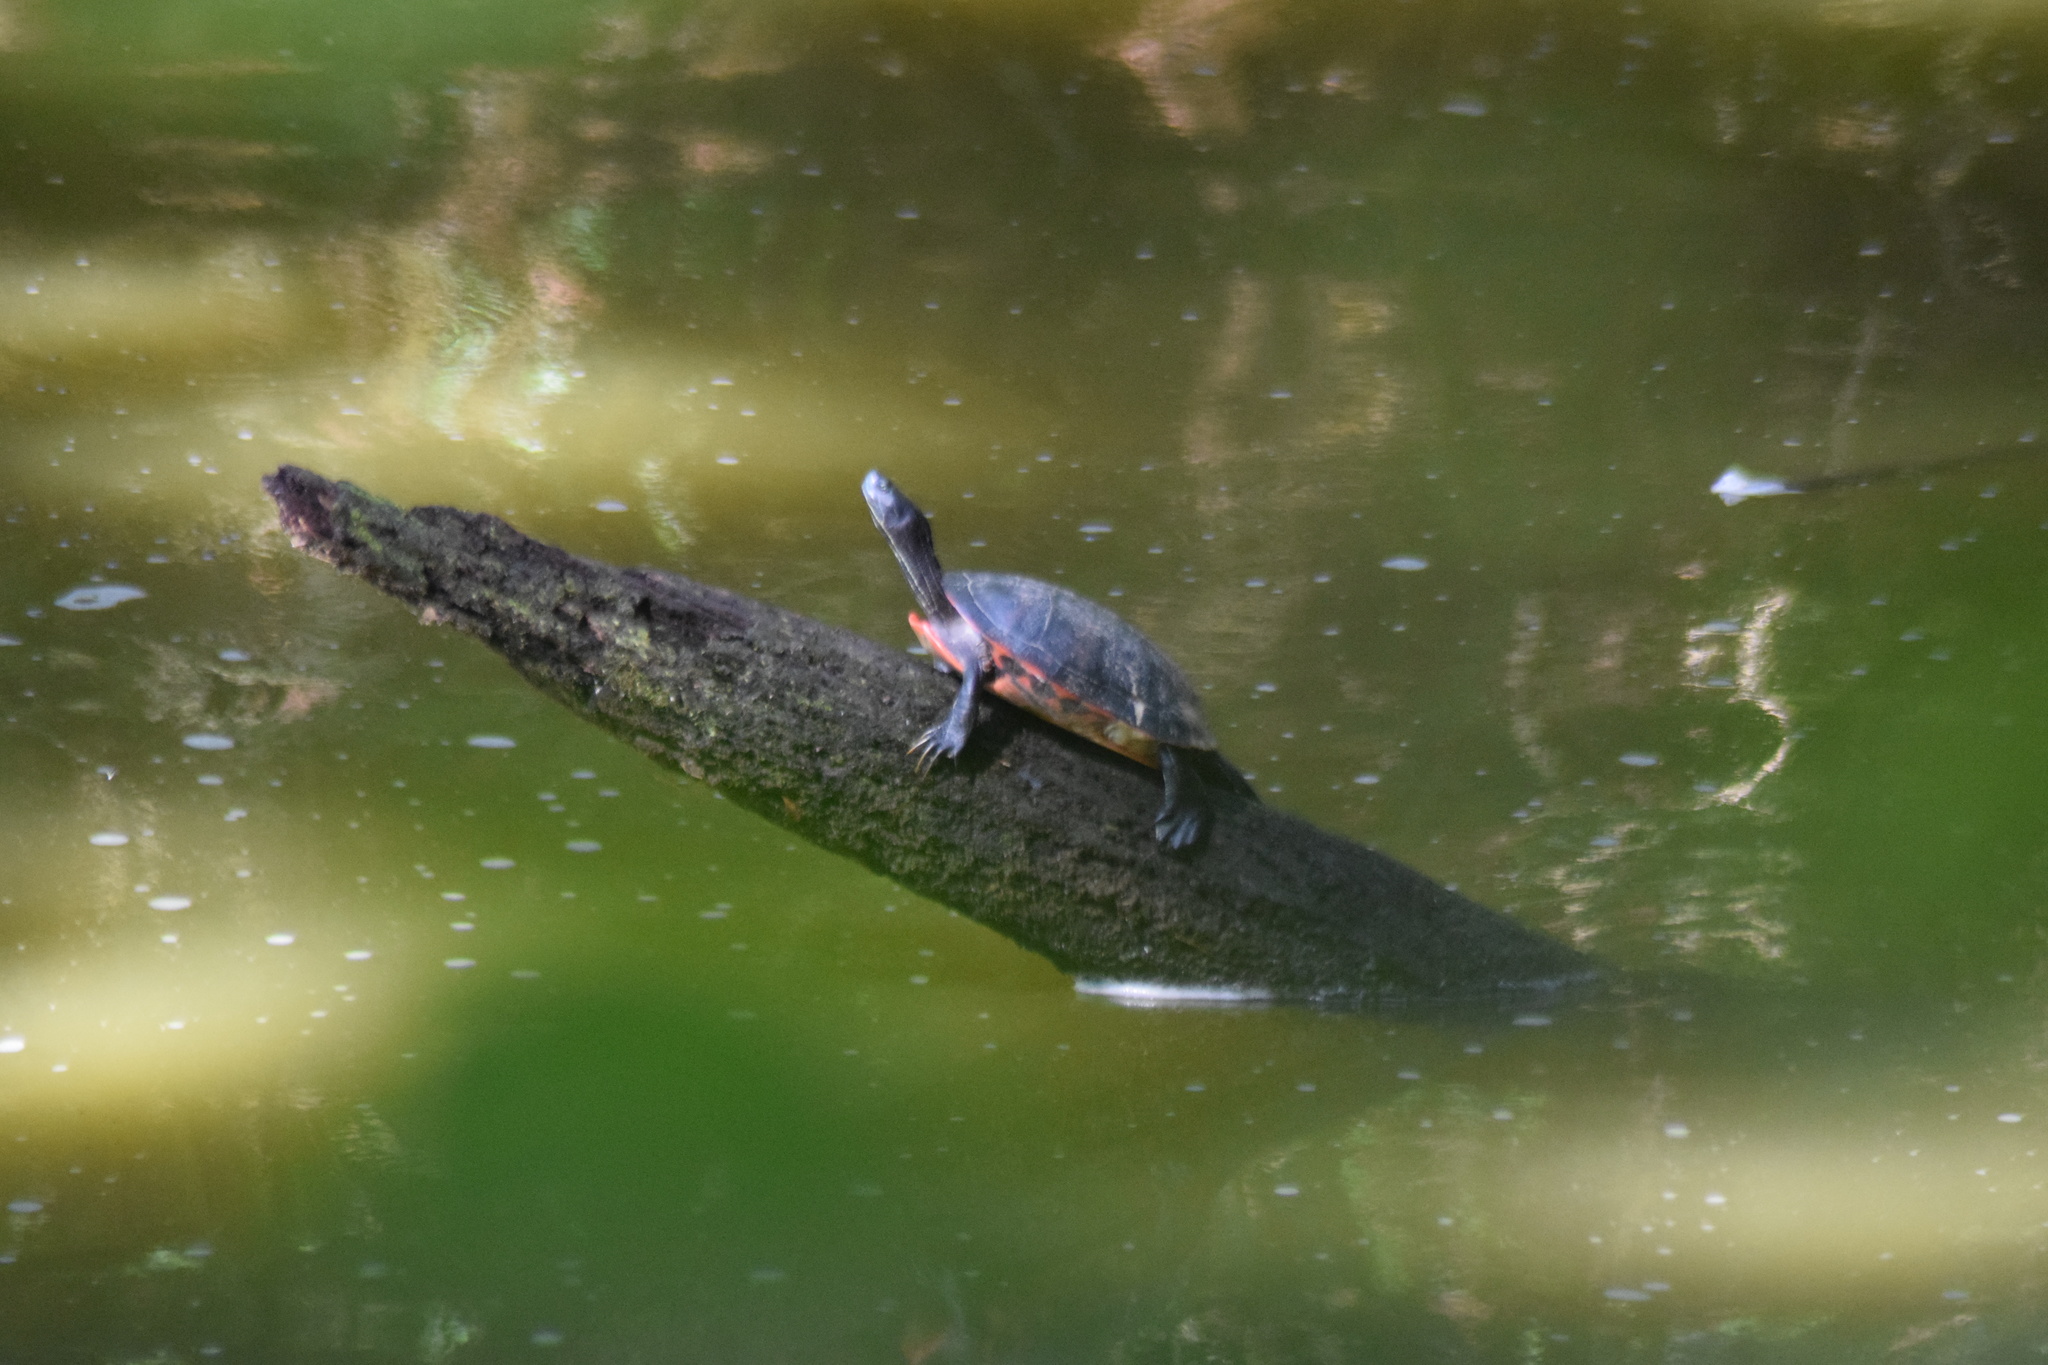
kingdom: Animalia
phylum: Chordata
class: Testudines
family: Emydidae
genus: Pseudemys
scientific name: Pseudemys rubriventris
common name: American red-bellied turtle
